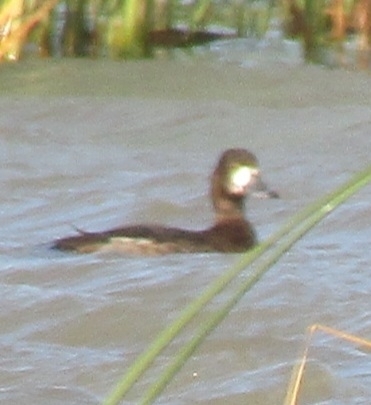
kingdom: Animalia
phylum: Chordata
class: Aves
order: Anseriformes
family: Anatidae
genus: Aythya
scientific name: Aythya marila
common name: Greater scaup
